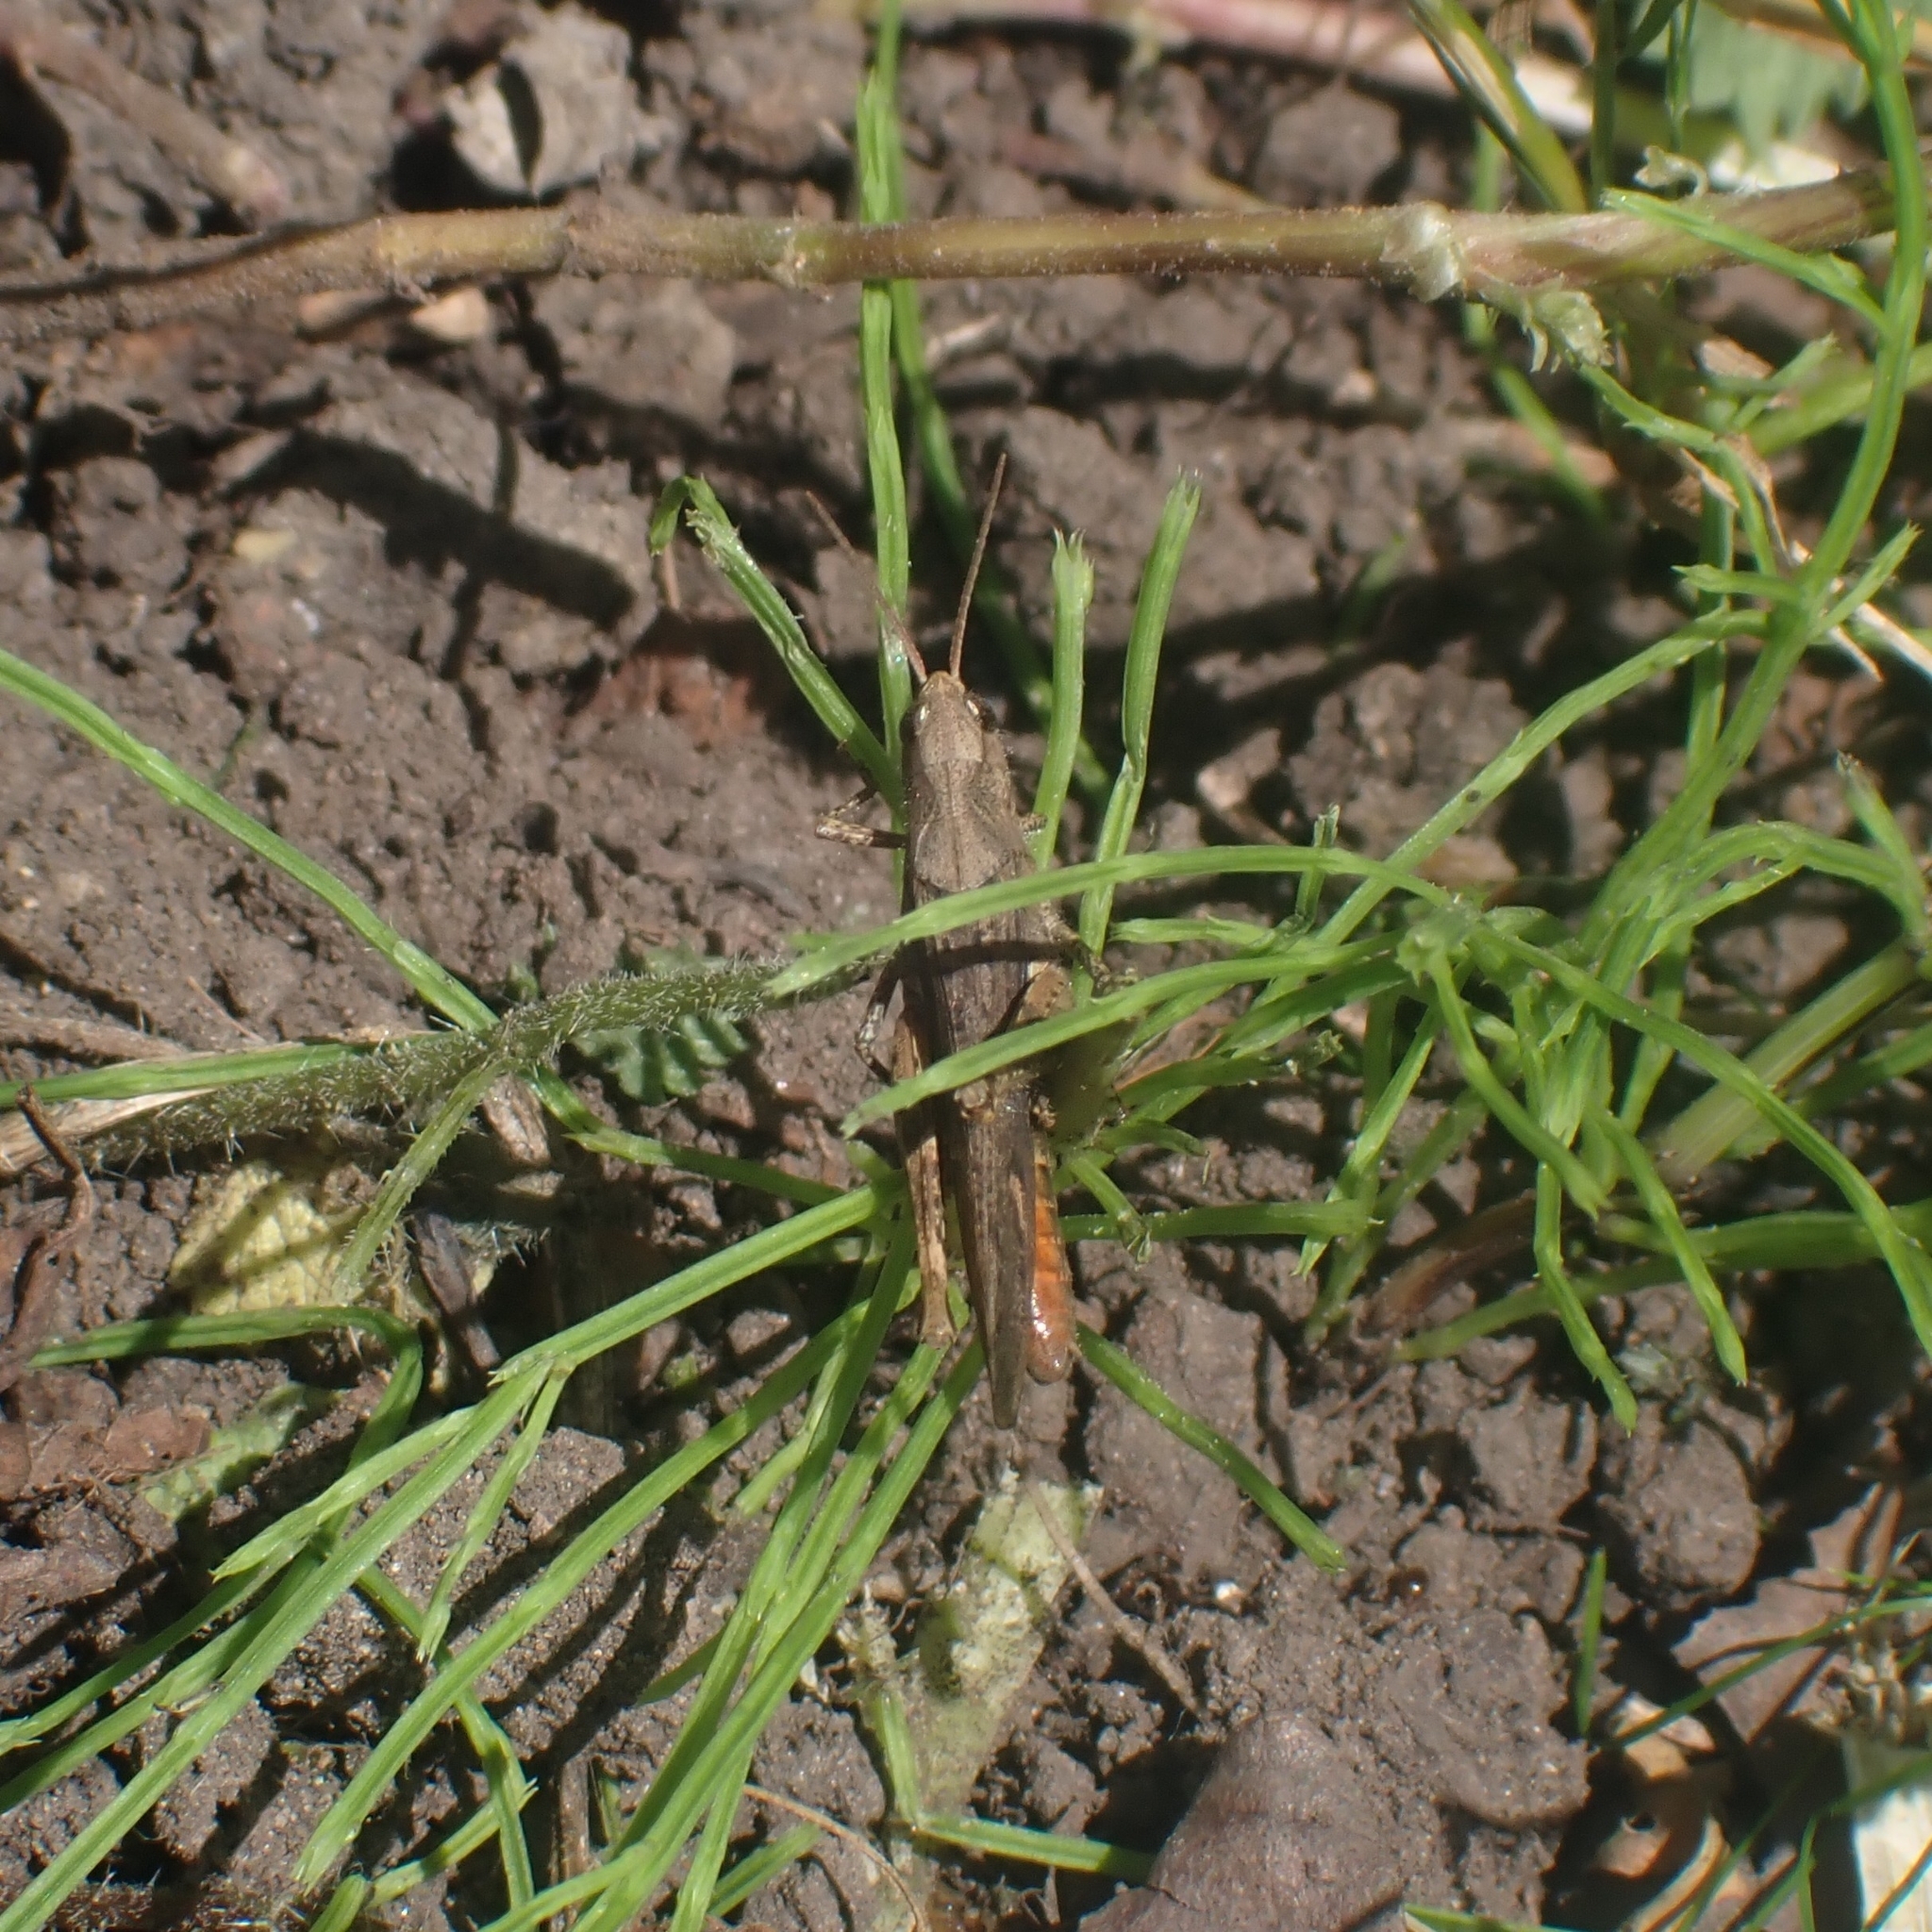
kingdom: Animalia
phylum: Arthropoda
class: Insecta
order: Orthoptera
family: Acrididae
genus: Chorthippus
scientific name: Chorthippus brunneus
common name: Field grasshopper
